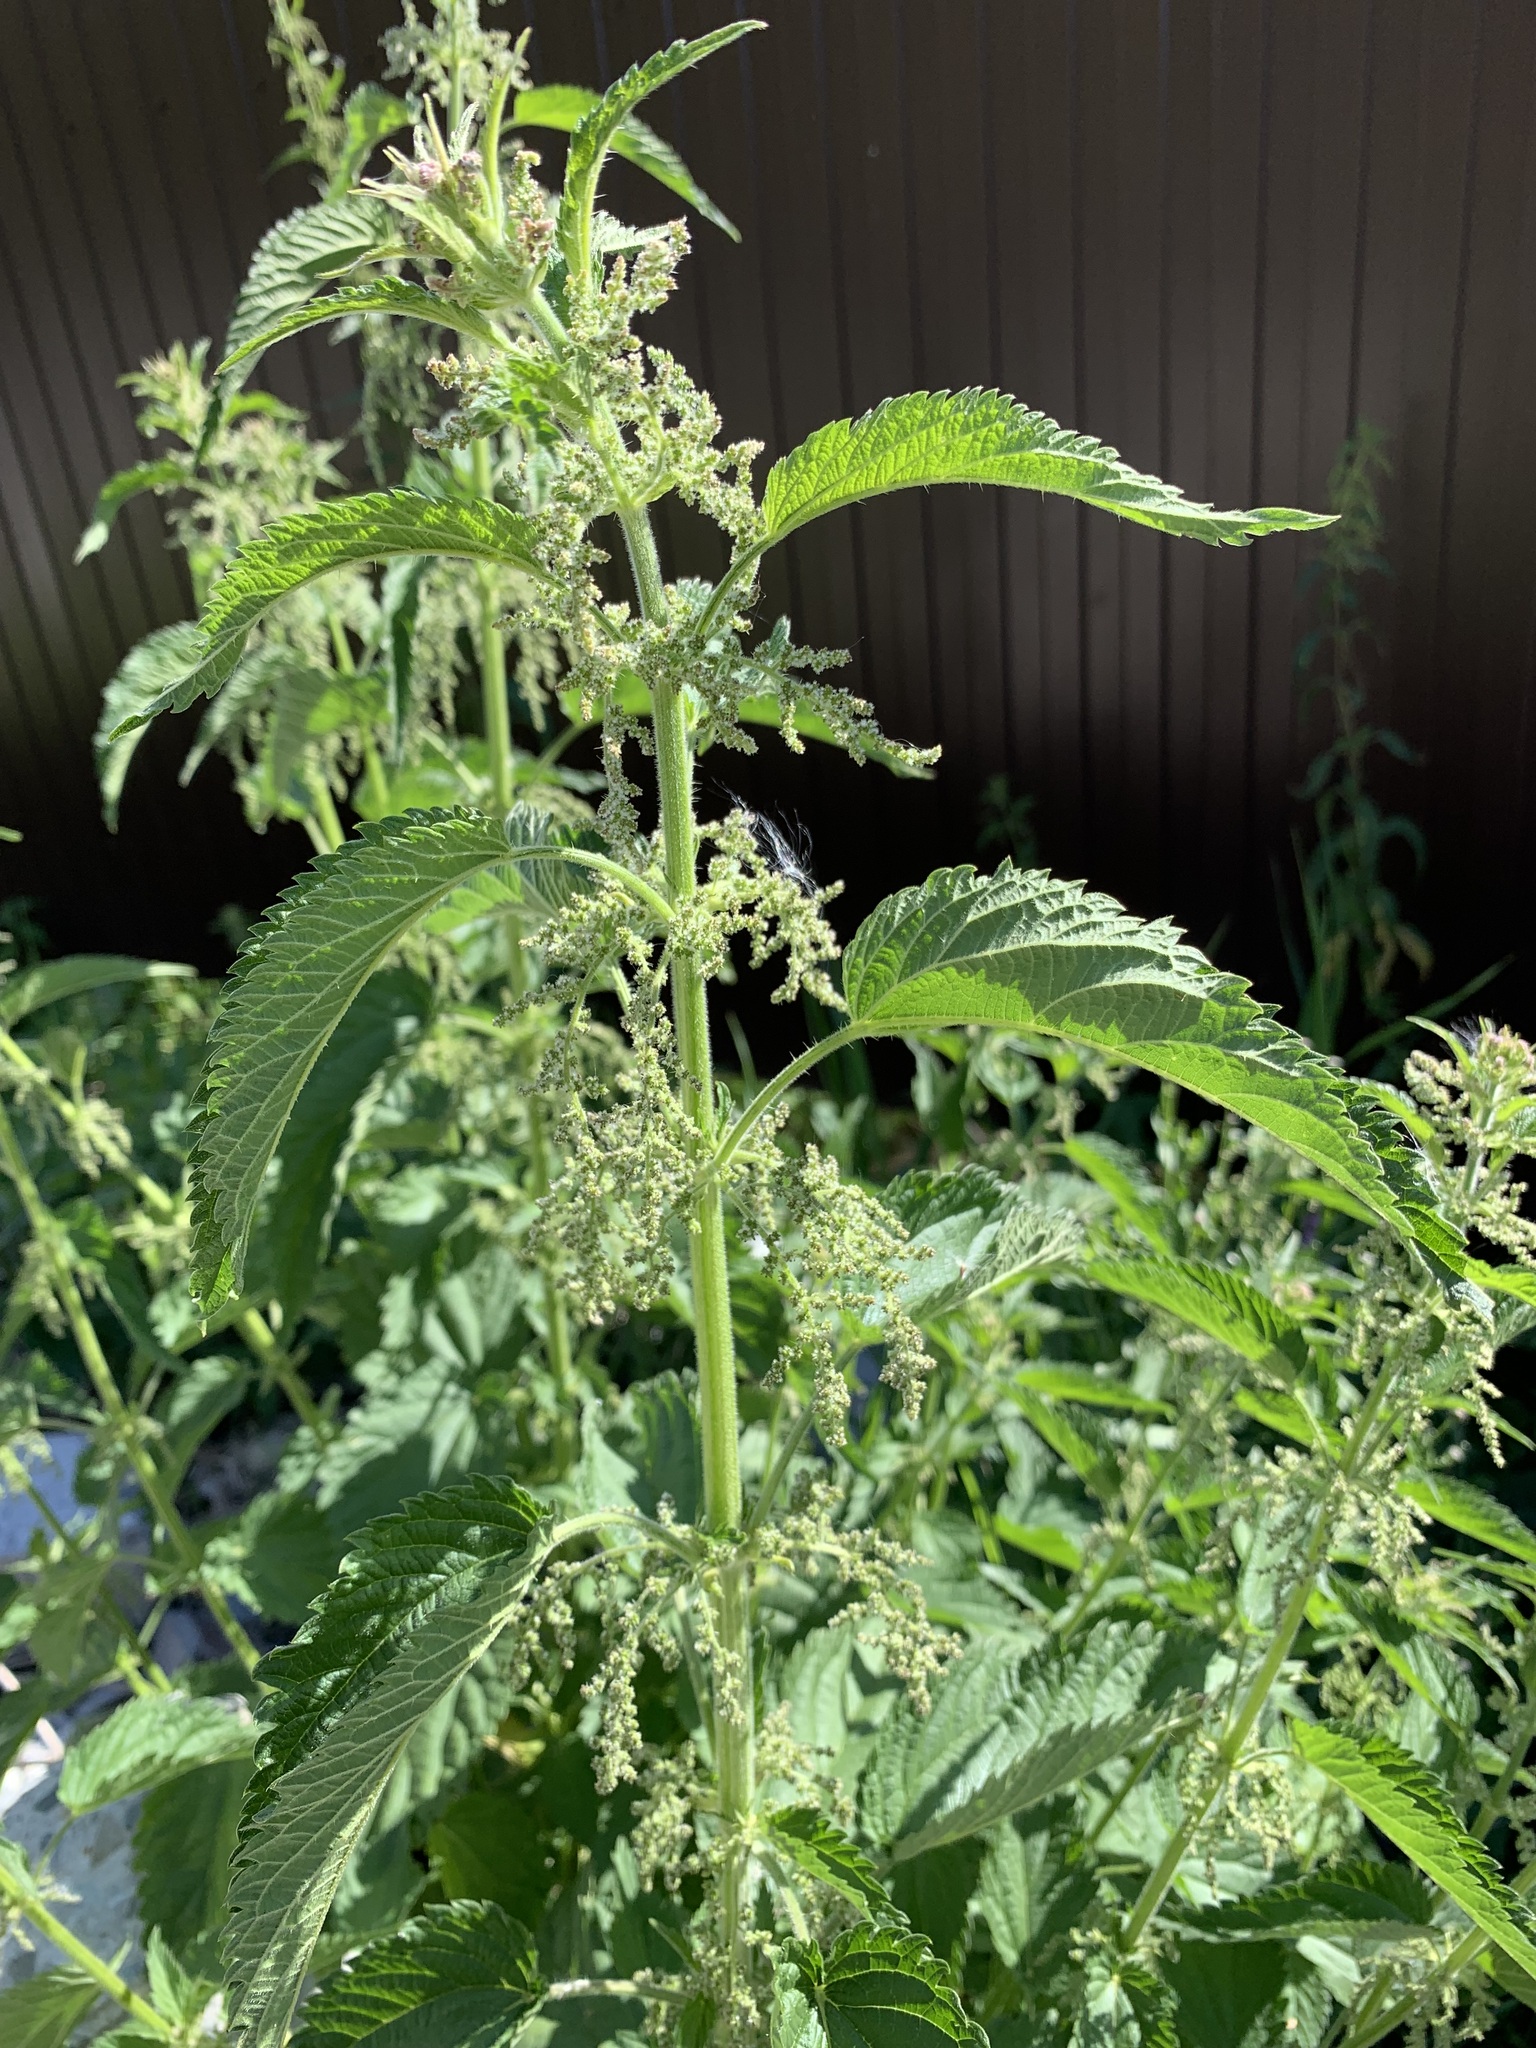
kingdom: Plantae
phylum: Tracheophyta
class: Magnoliopsida
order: Rosales
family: Urticaceae
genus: Urtica
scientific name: Urtica dioica
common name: Common nettle
